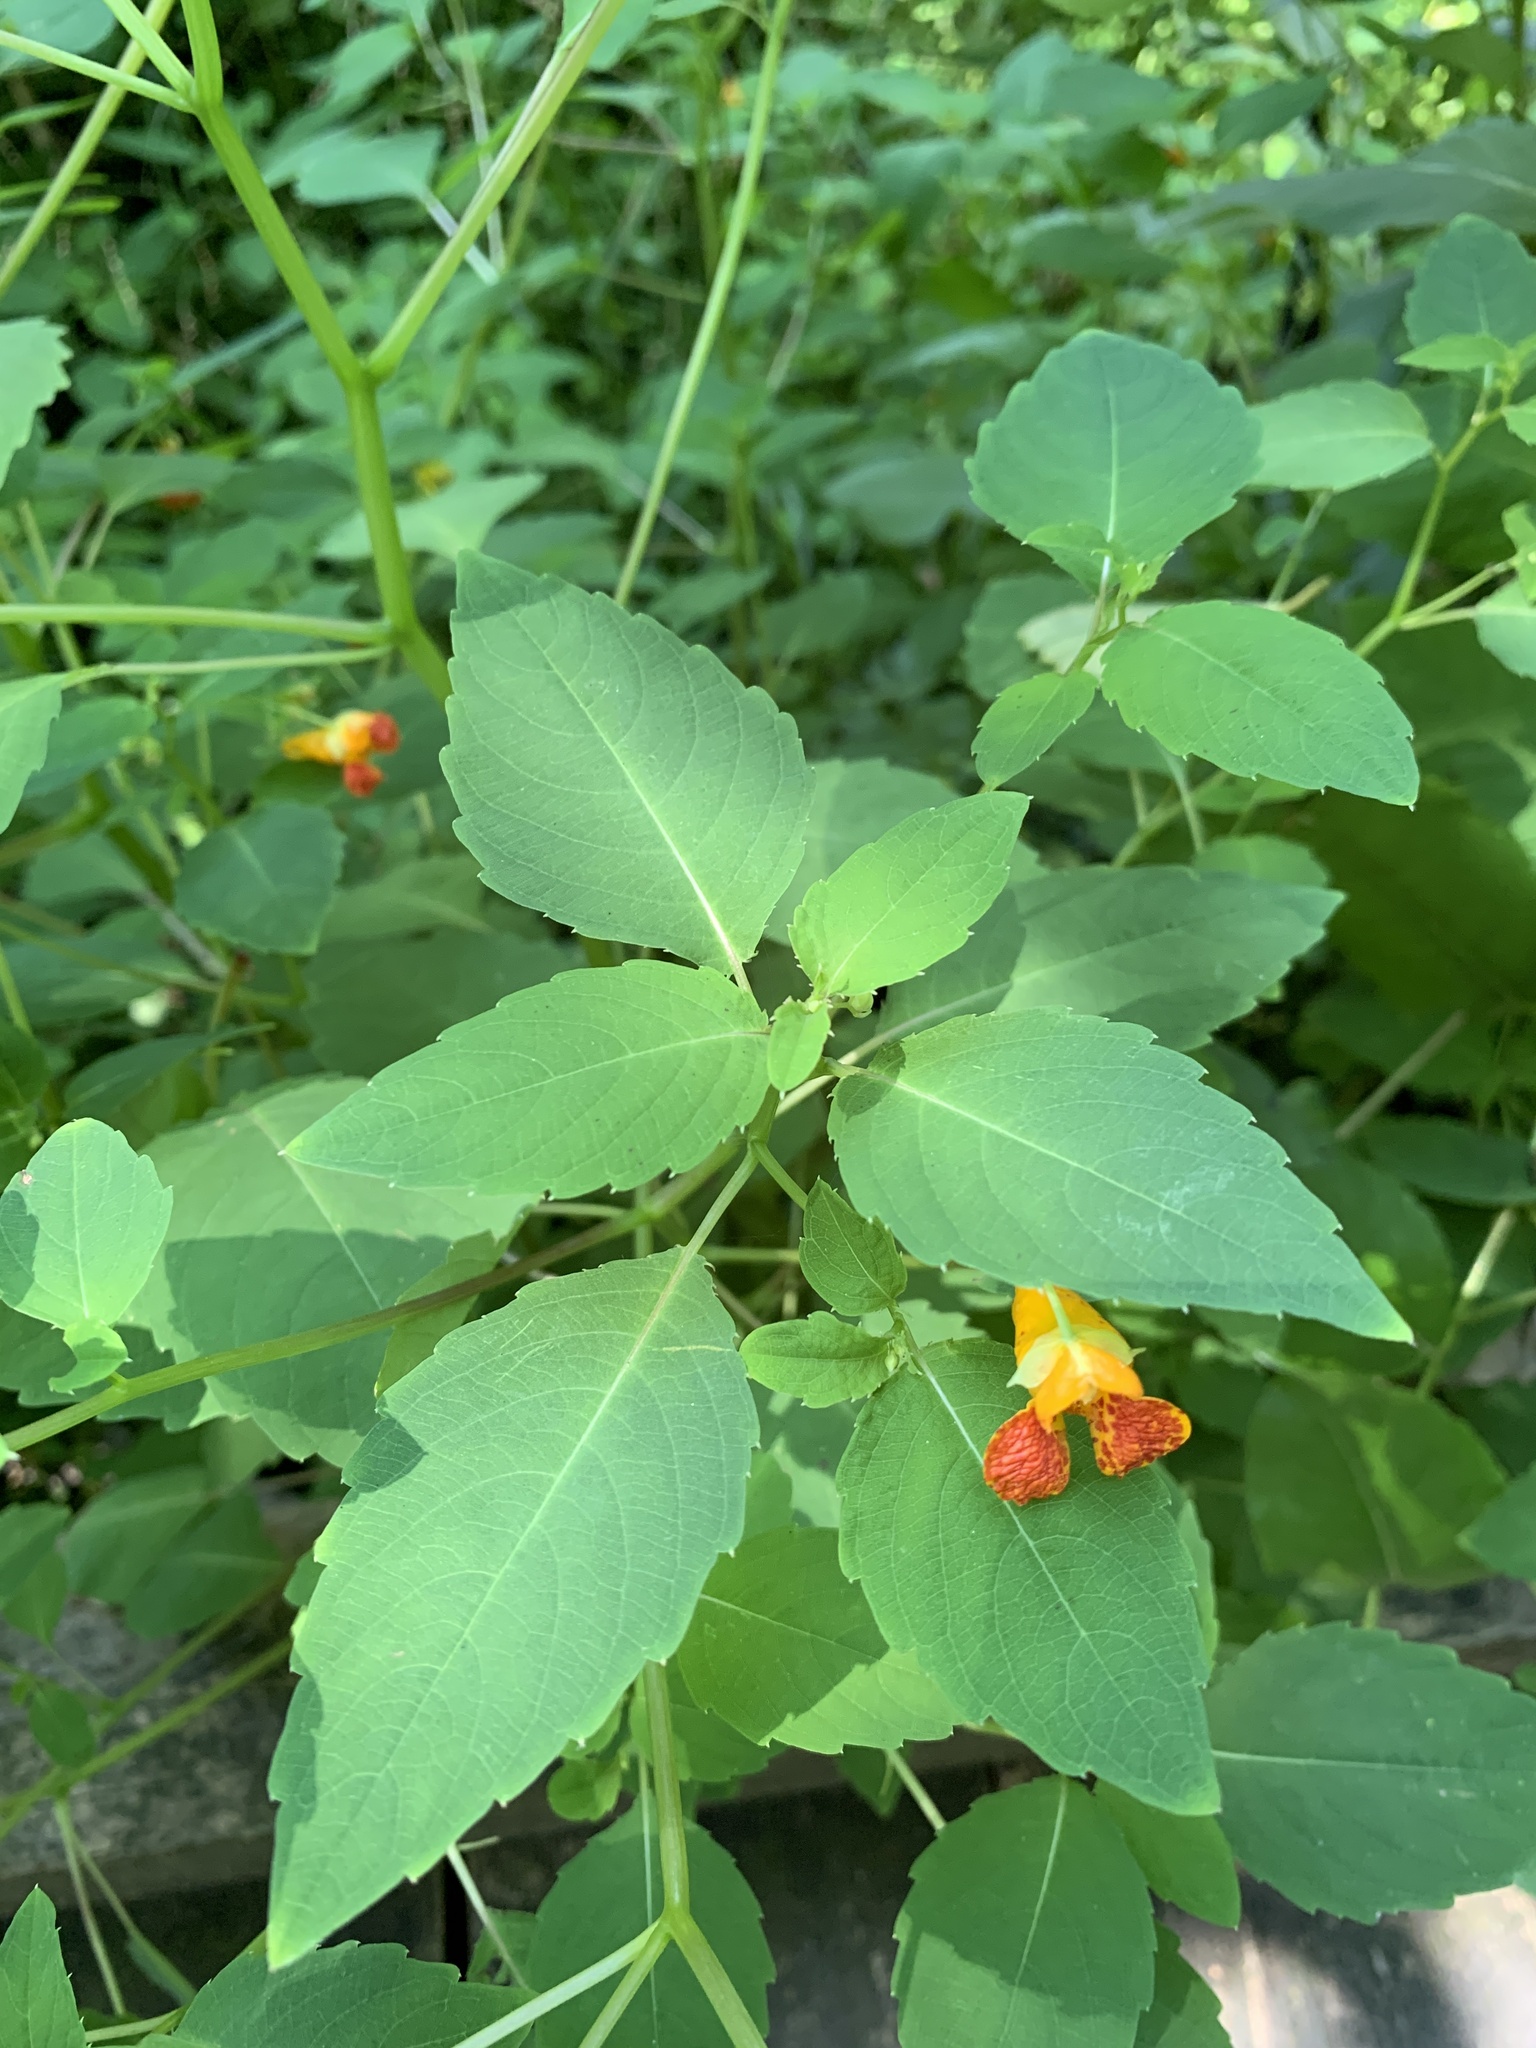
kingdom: Plantae
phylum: Tracheophyta
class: Magnoliopsida
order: Ericales
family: Balsaminaceae
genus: Impatiens
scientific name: Impatiens capensis
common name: Orange balsam
